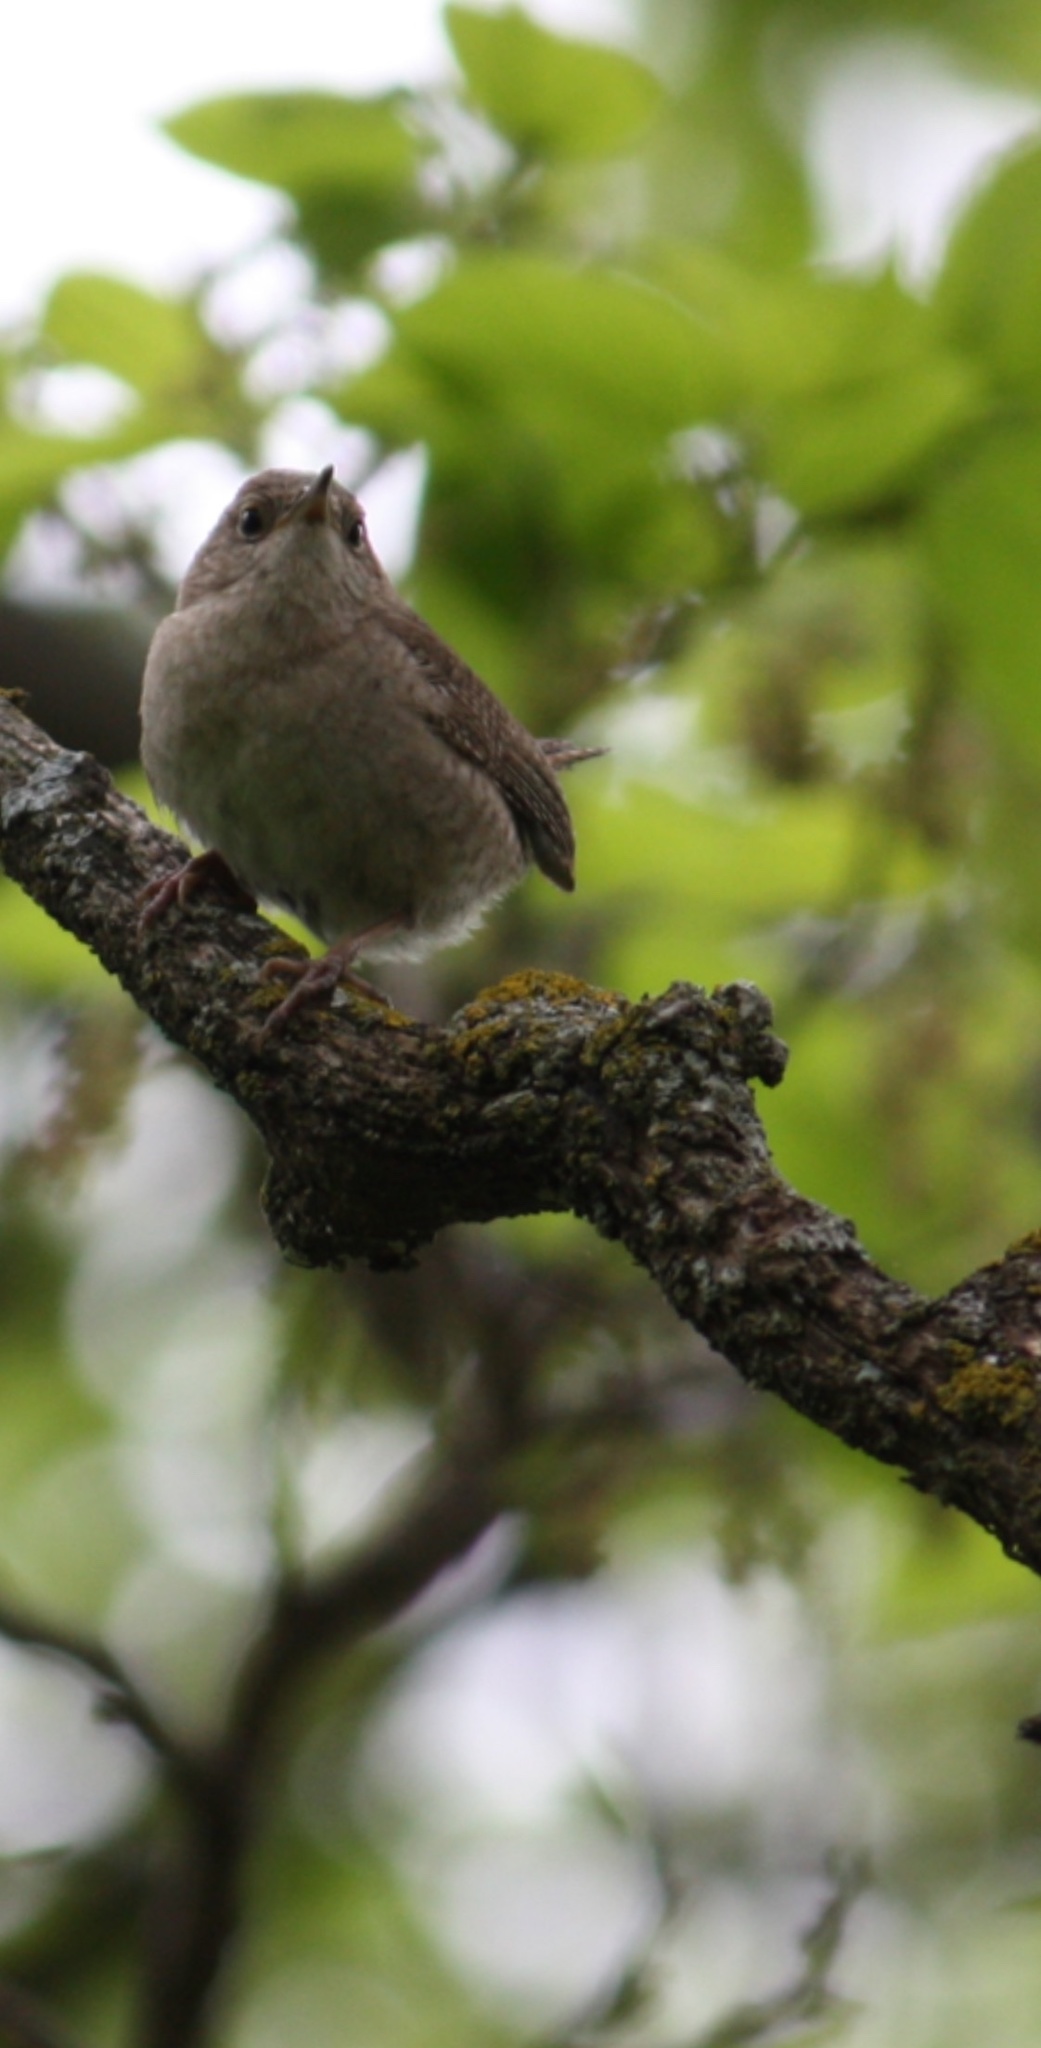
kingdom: Animalia
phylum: Chordata
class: Aves
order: Passeriformes
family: Troglodytidae
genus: Troglodytes
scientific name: Troglodytes aedon
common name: House wren
